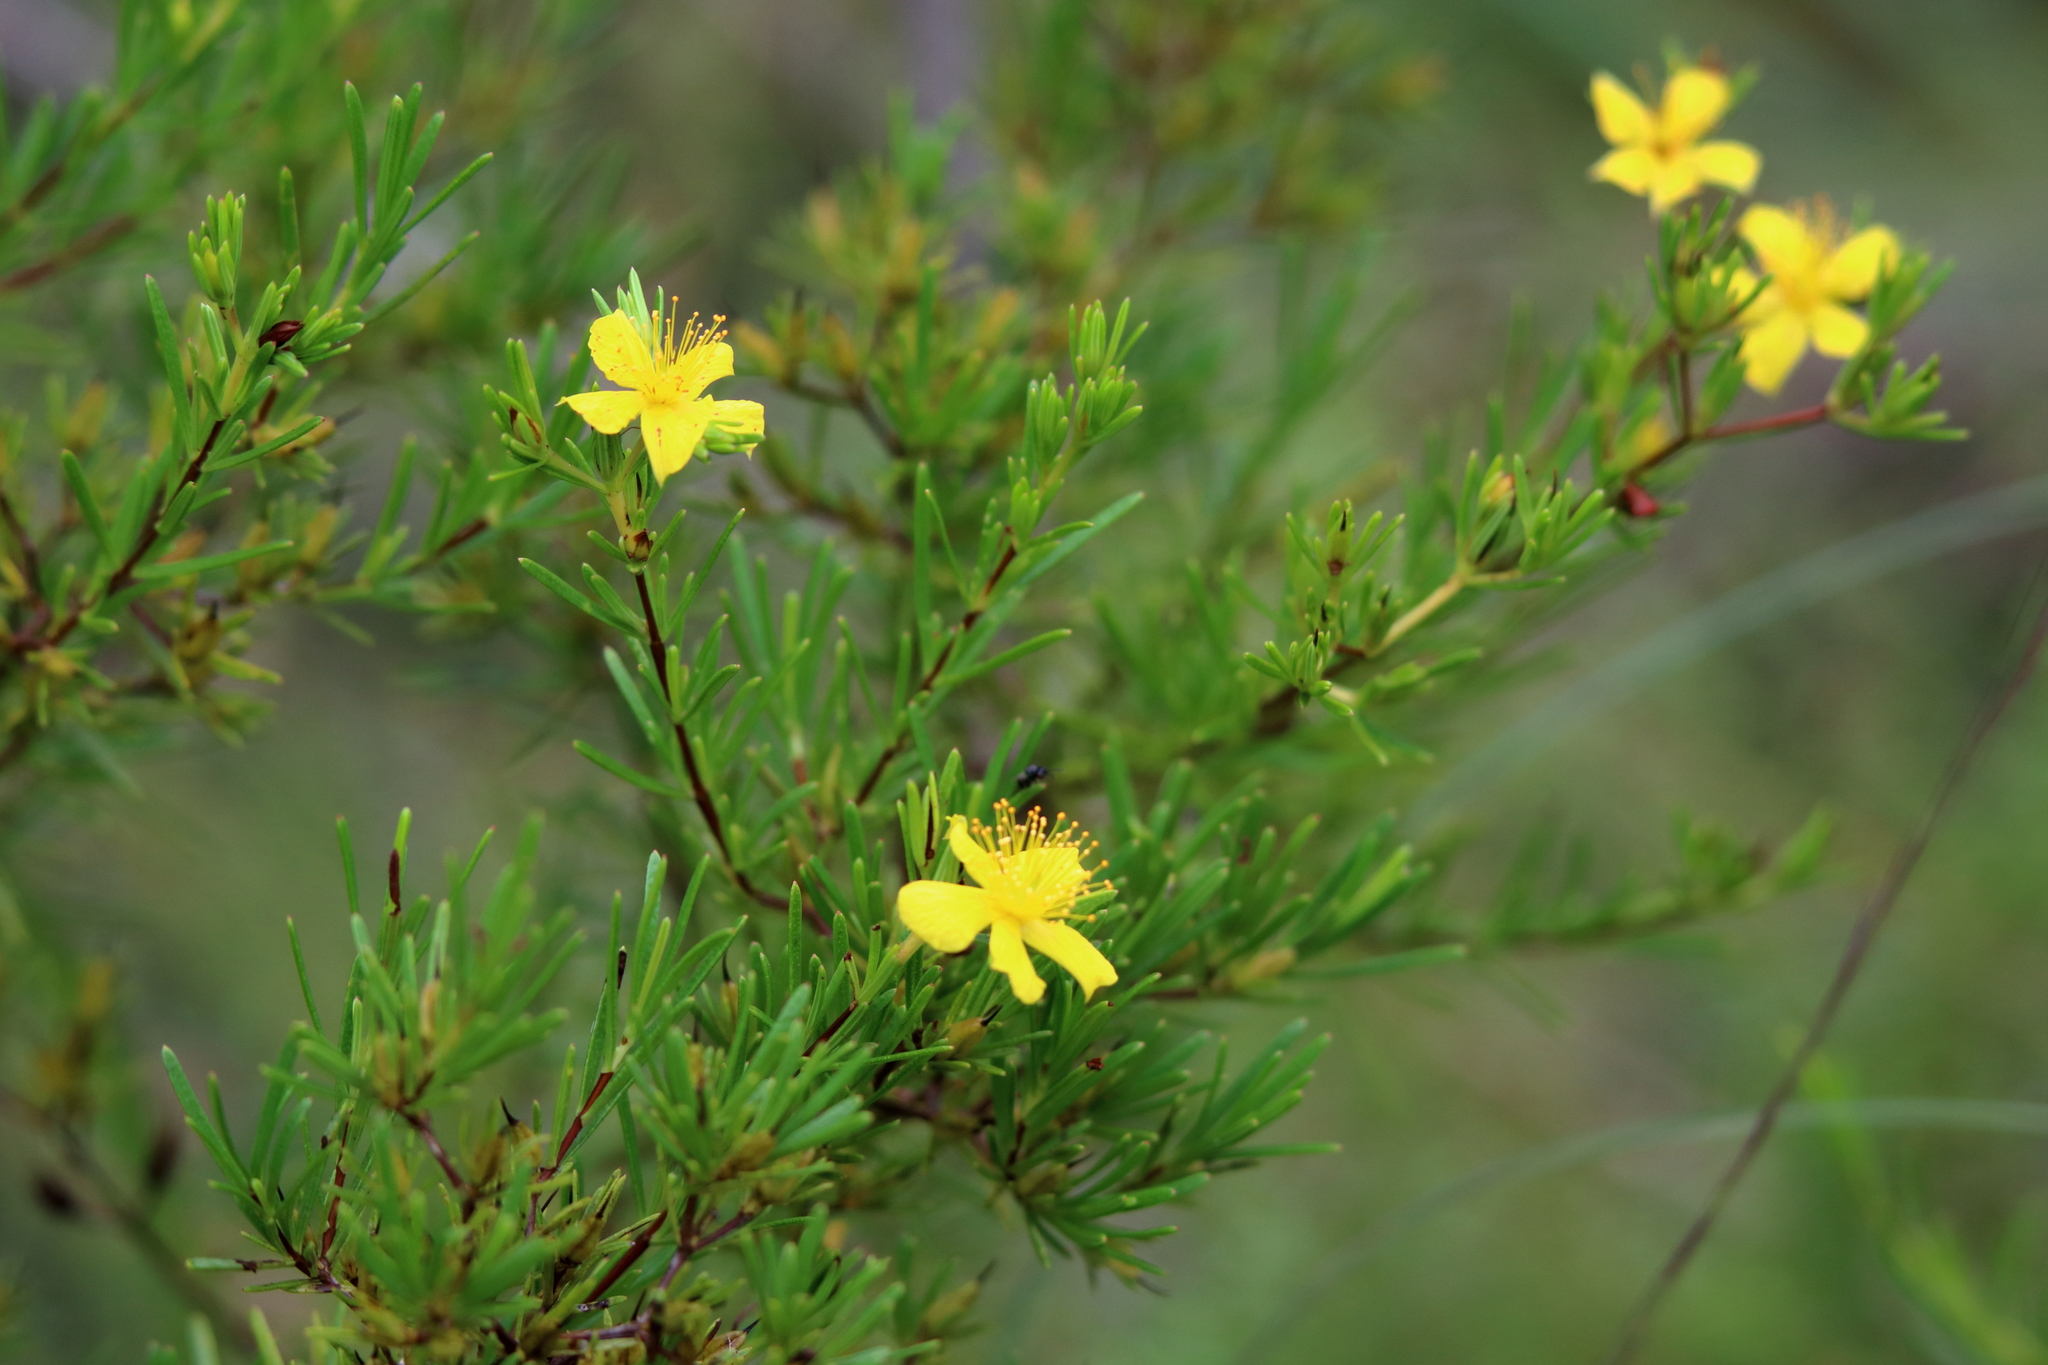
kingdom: Plantae
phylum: Tracheophyta
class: Magnoliopsida
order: Malpighiales
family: Hypericaceae
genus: Hypericum
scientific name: Hypericum fasciculatum
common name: Peelbark st. john's wort
